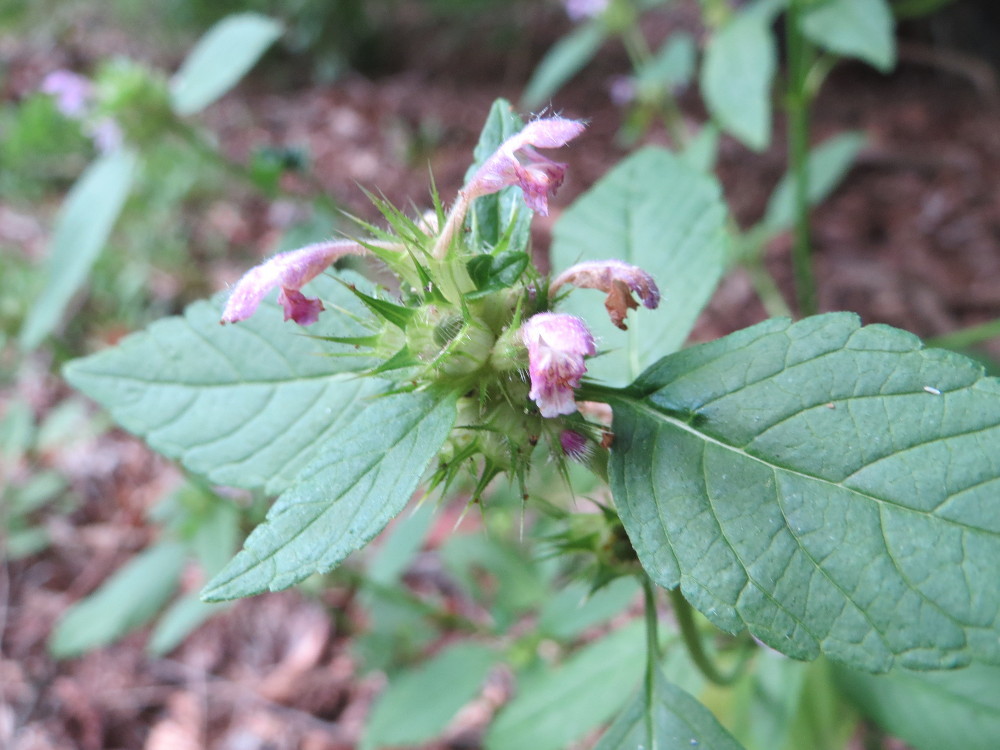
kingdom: Plantae
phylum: Tracheophyta
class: Magnoliopsida
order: Lamiales
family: Lamiaceae
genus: Galeopsis
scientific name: Galeopsis tetrahit
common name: Common hemp-nettle
